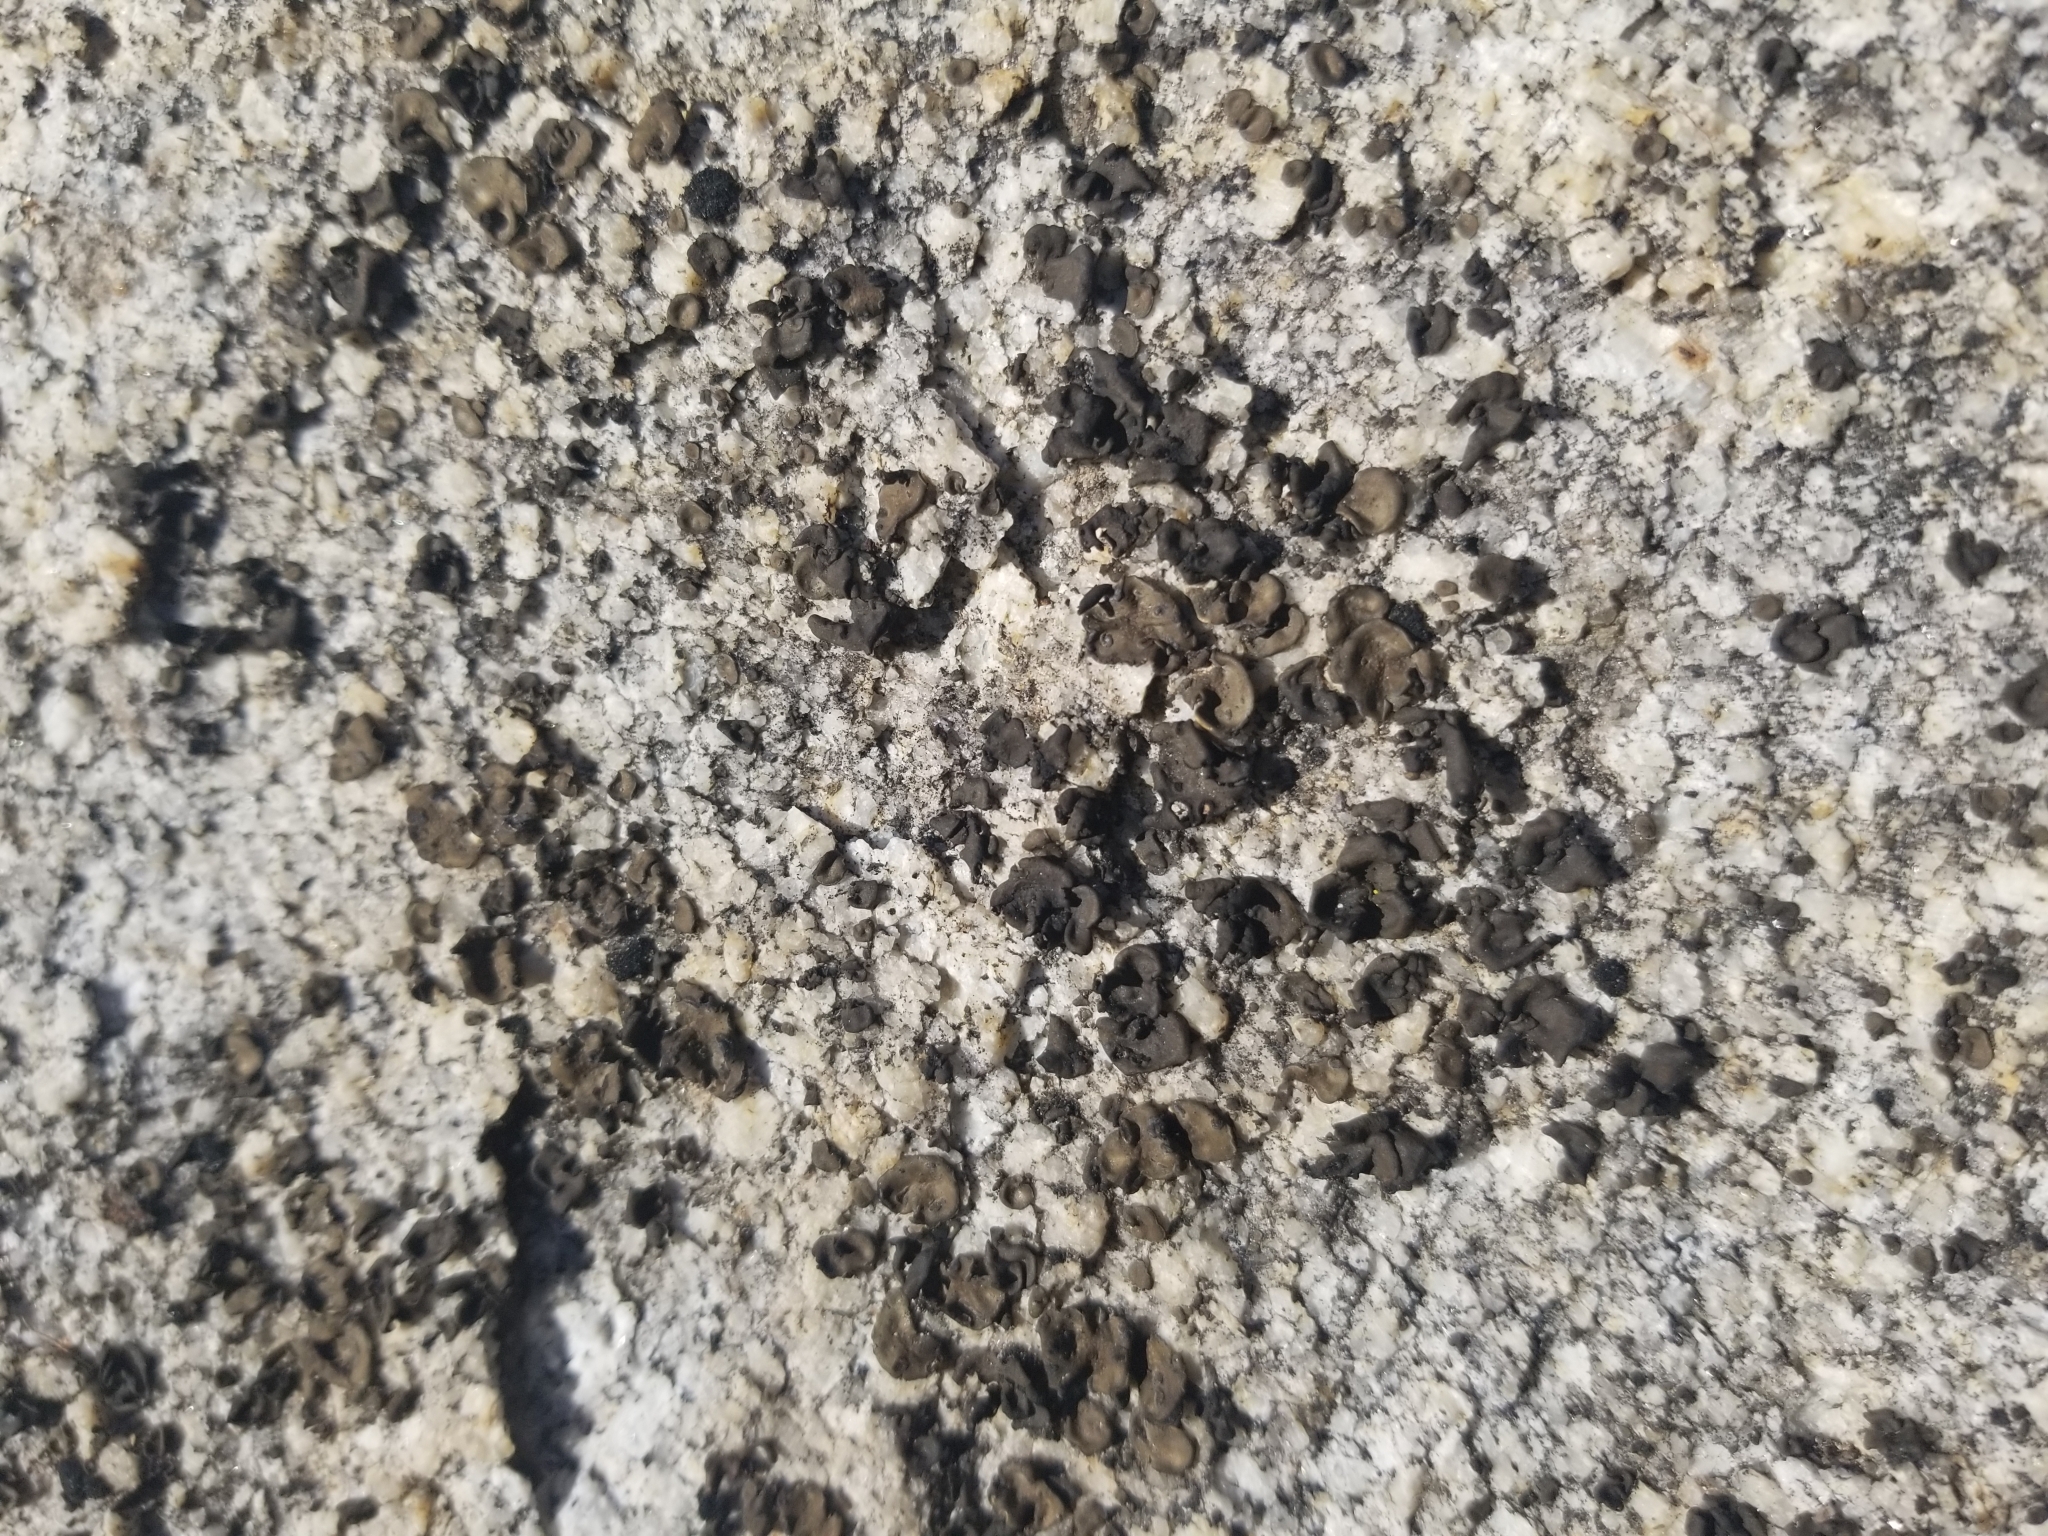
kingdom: Fungi
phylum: Ascomycota
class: Lichinomycetes
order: Lichinales
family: Peltulaceae
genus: Peltula
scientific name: Peltula euploca
